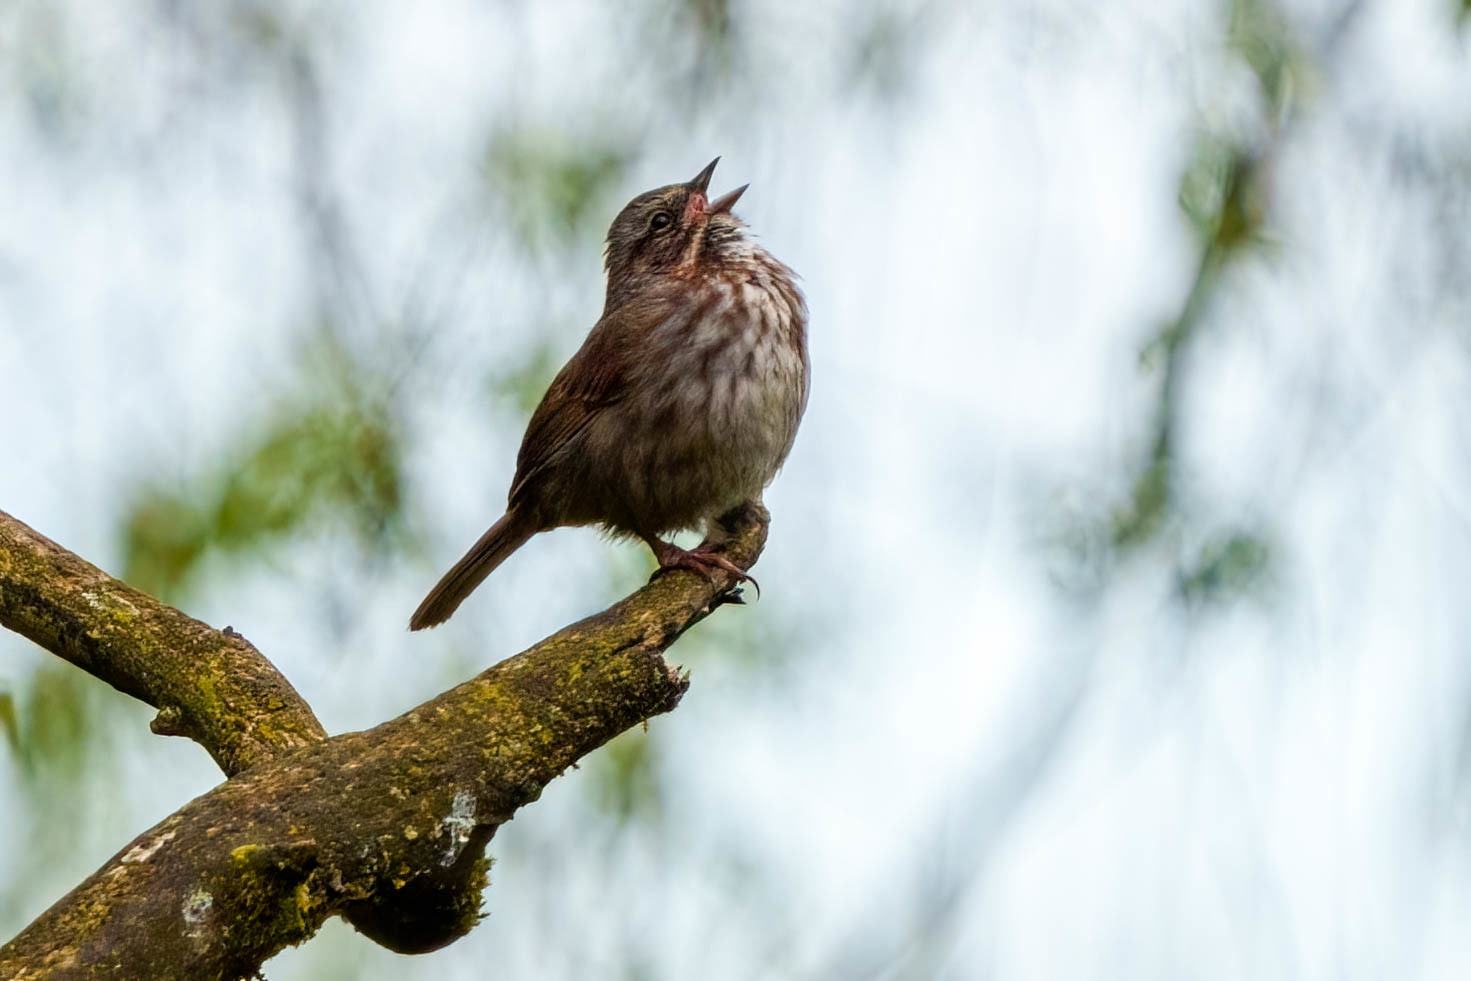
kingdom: Animalia
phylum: Chordata
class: Aves
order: Passeriformes
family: Passerellidae
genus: Melospiza
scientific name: Melospiza melodia
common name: Song sparrow
